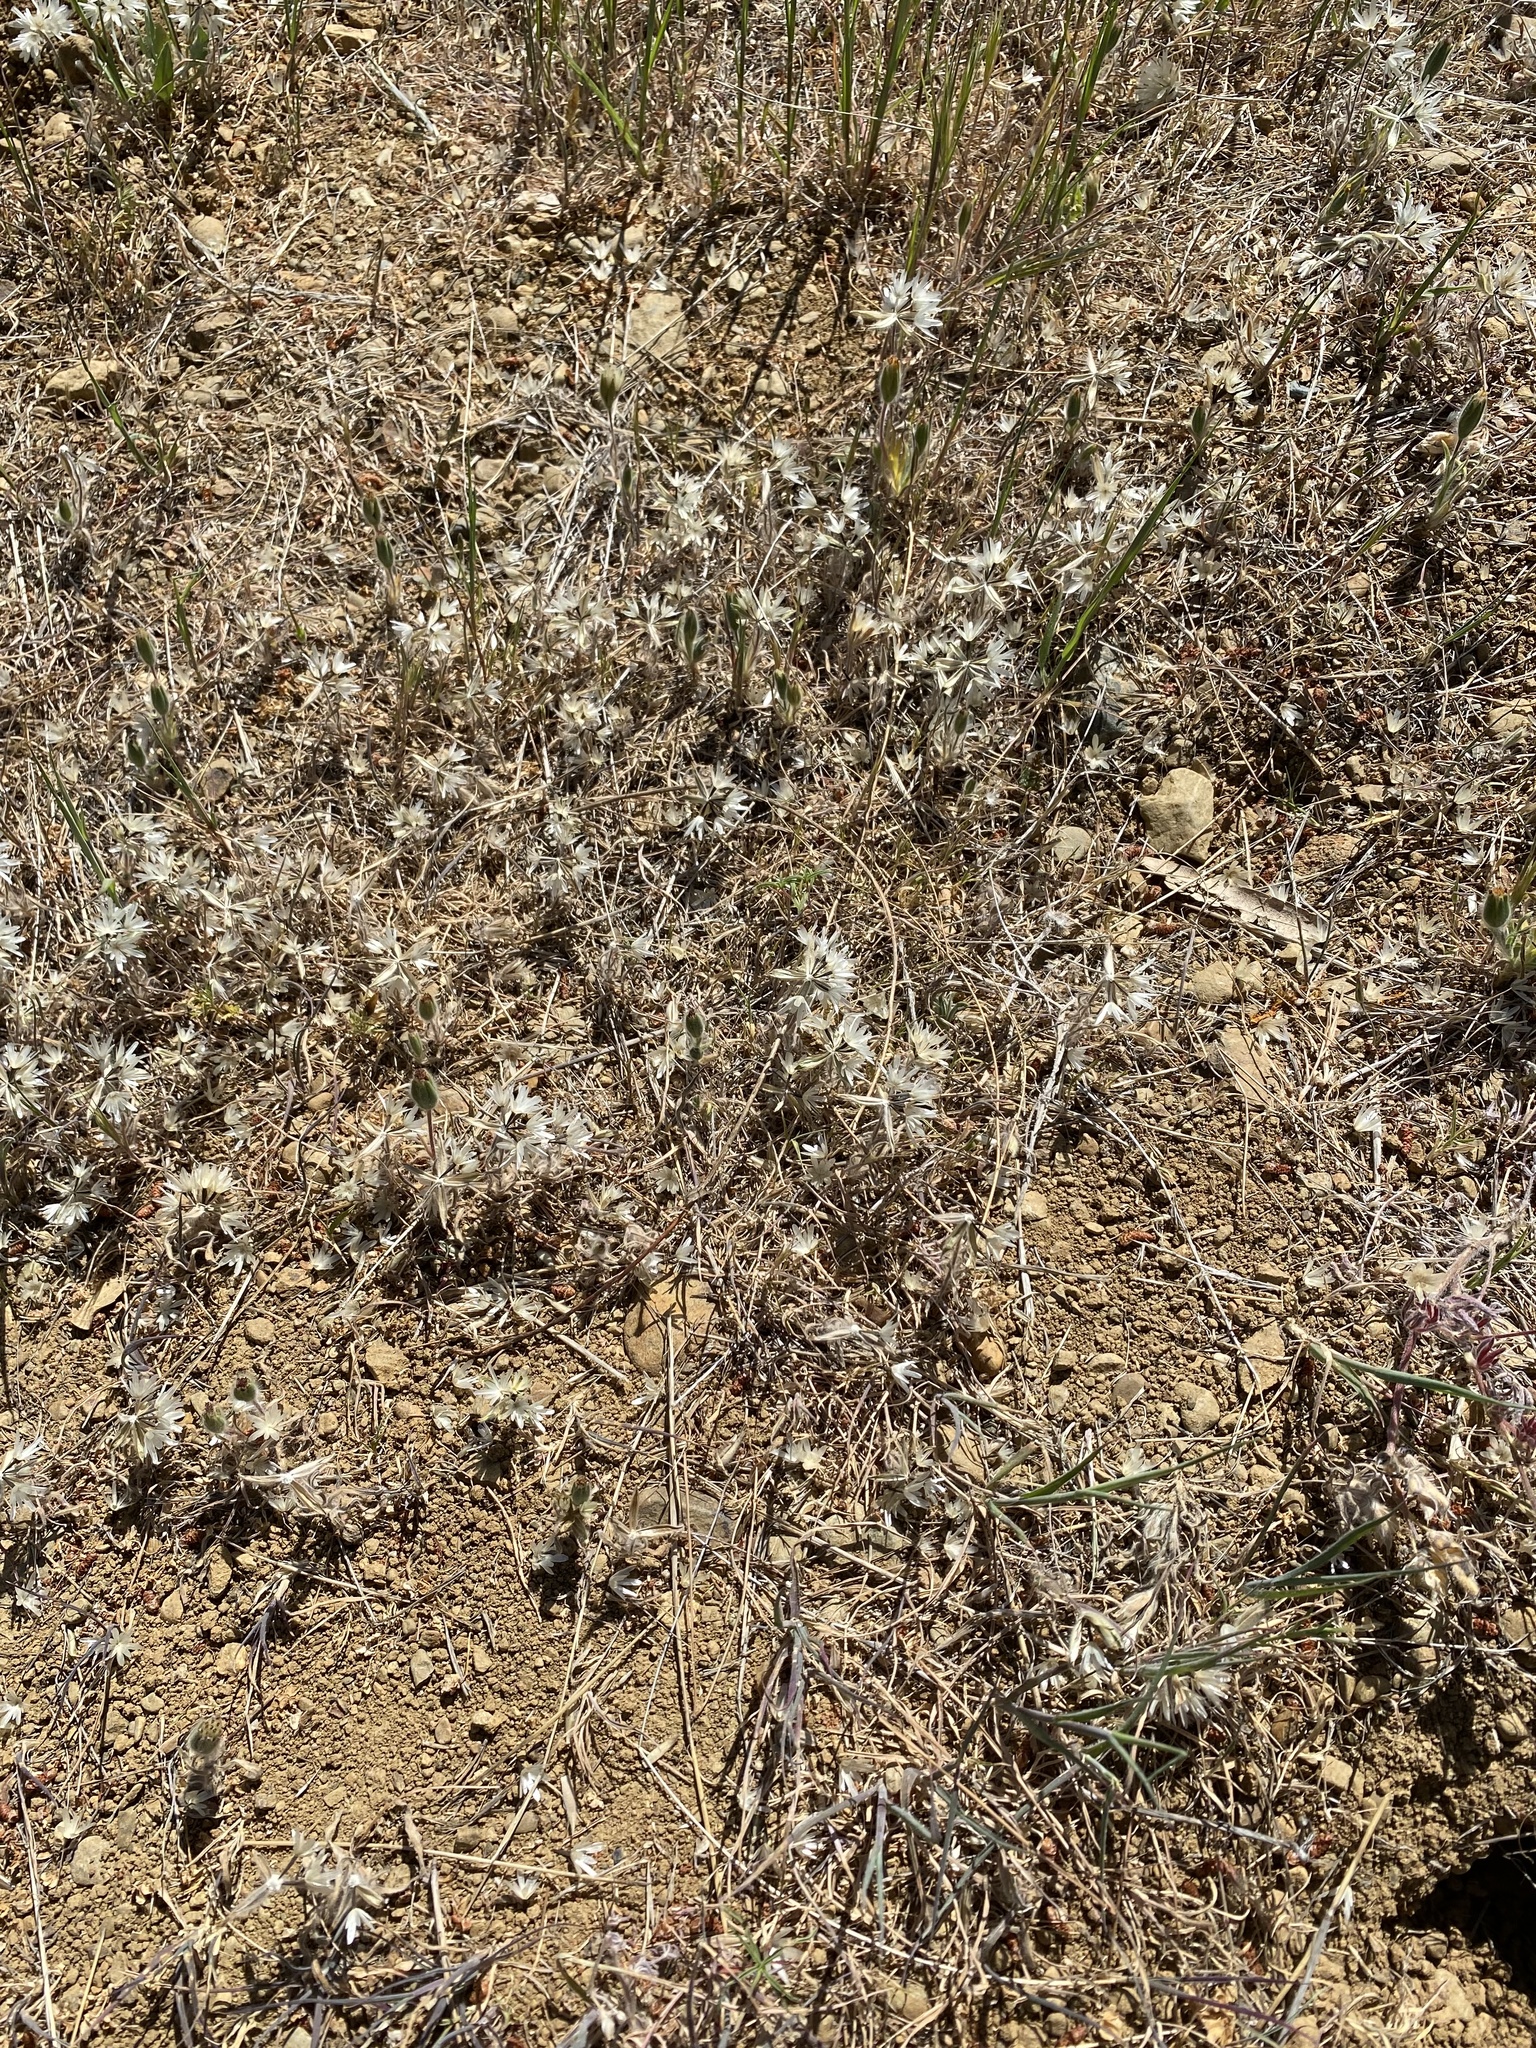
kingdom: Plantae
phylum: Tracheophyta
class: Magnoliopsida
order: Asterales
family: Asteraceae
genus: Achyrachaena
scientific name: Achyrachaena mollis
